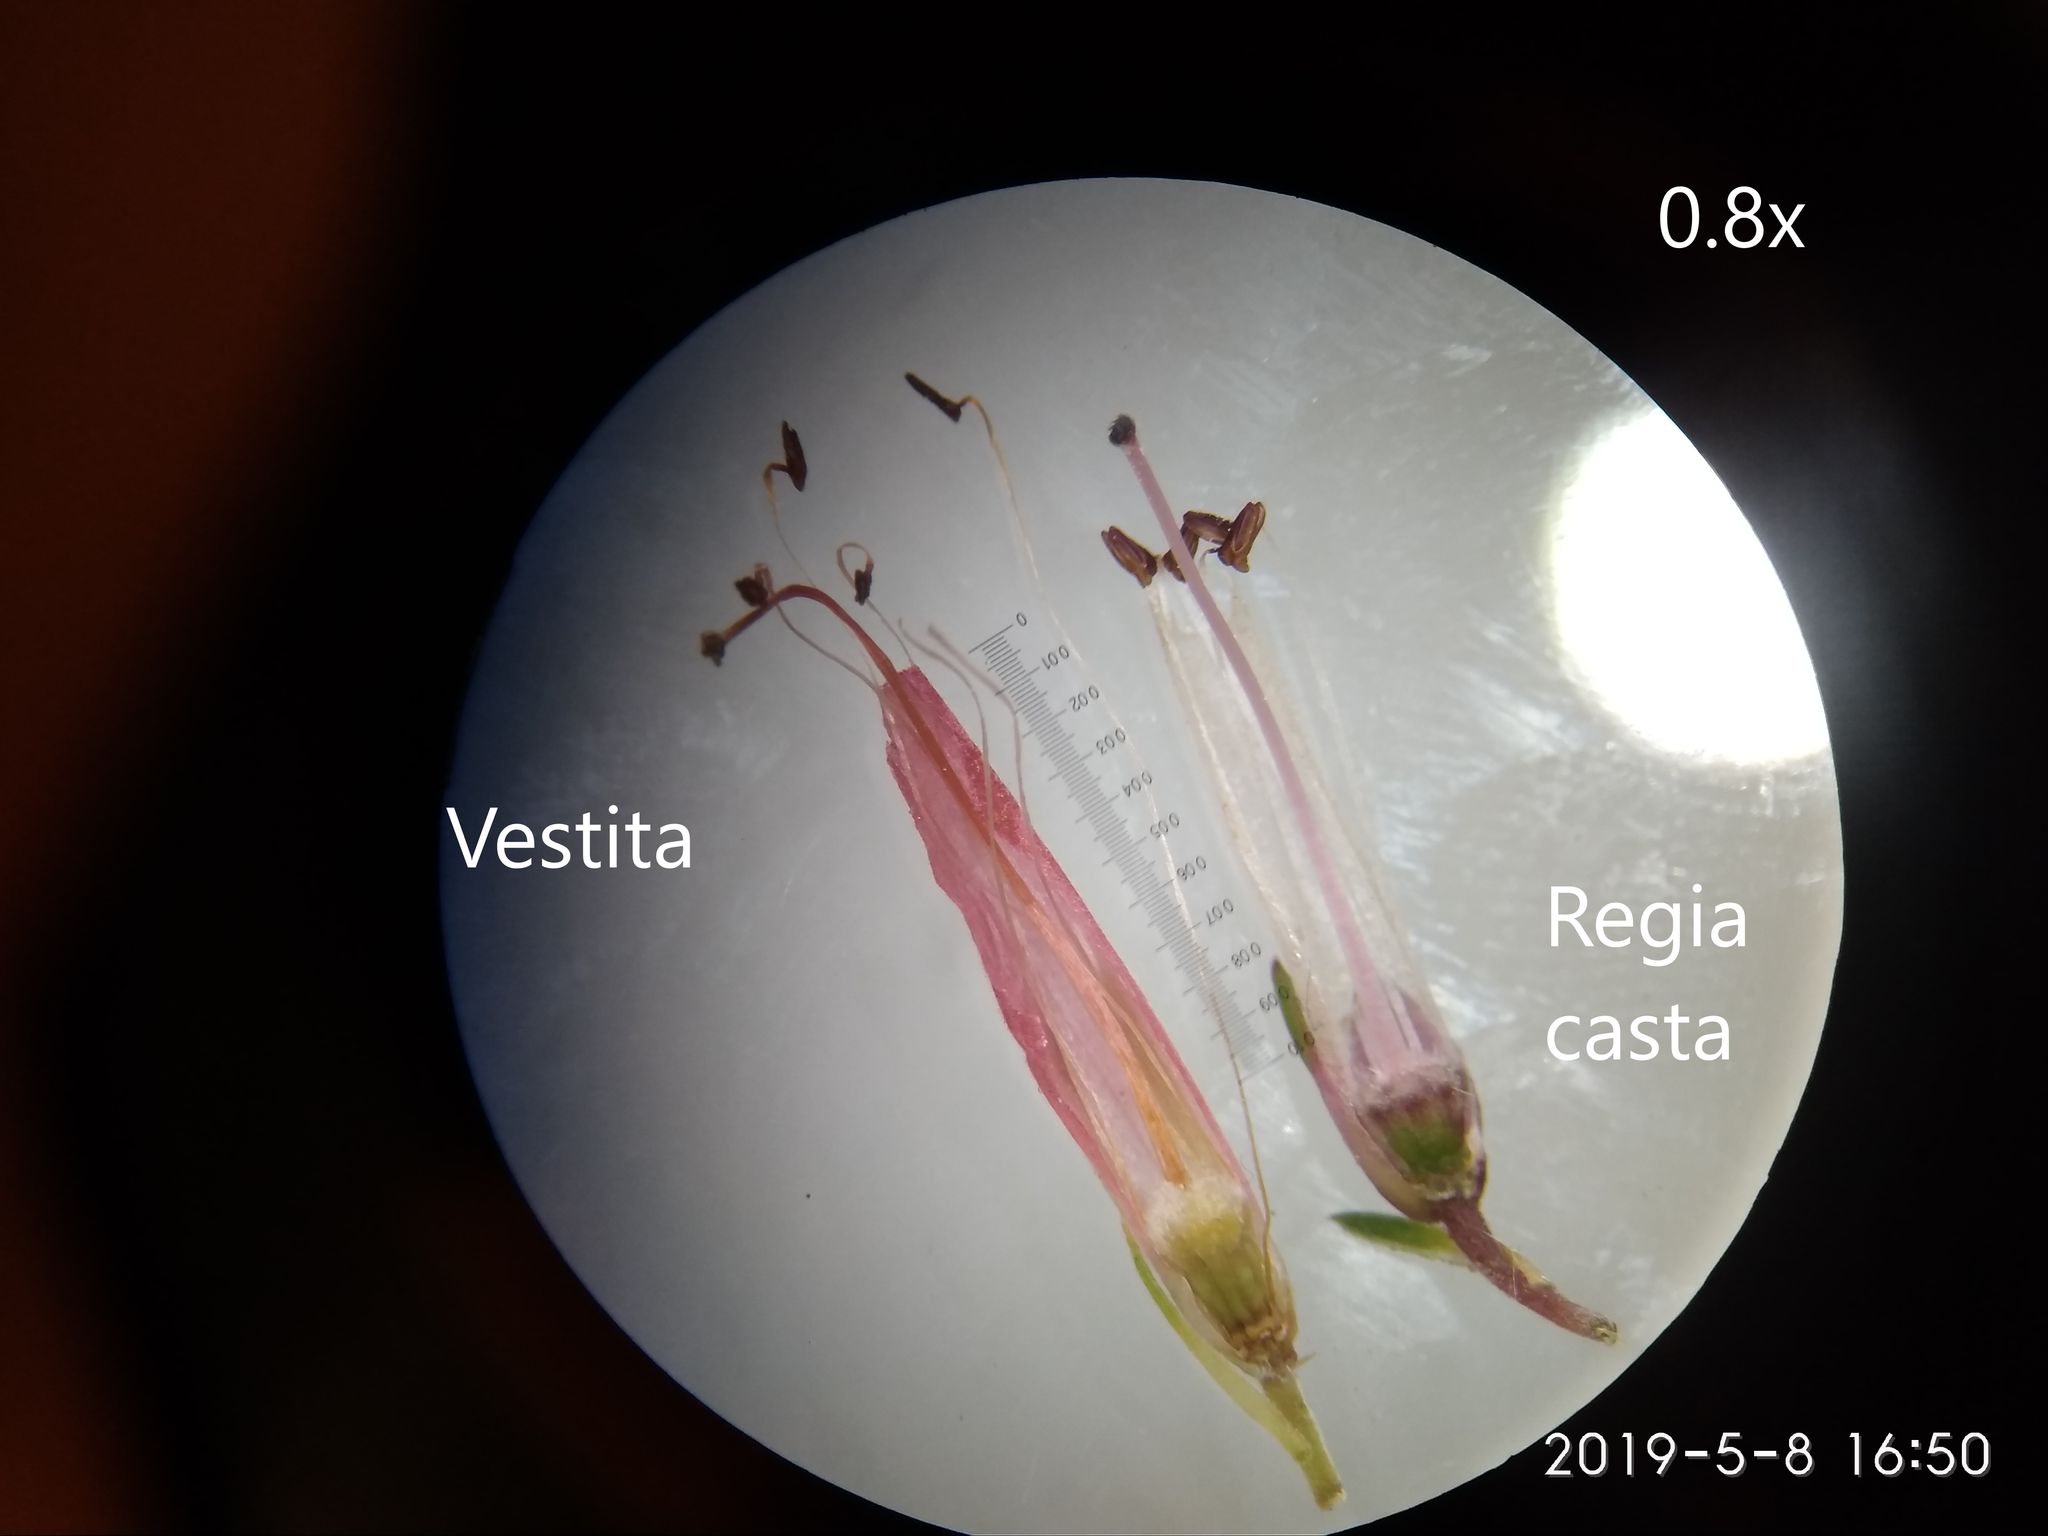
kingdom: Plantae
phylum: Tracheophyta
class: Magnoliopsida
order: Ericales
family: Ericaceae
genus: Erica
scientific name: Erica regia
